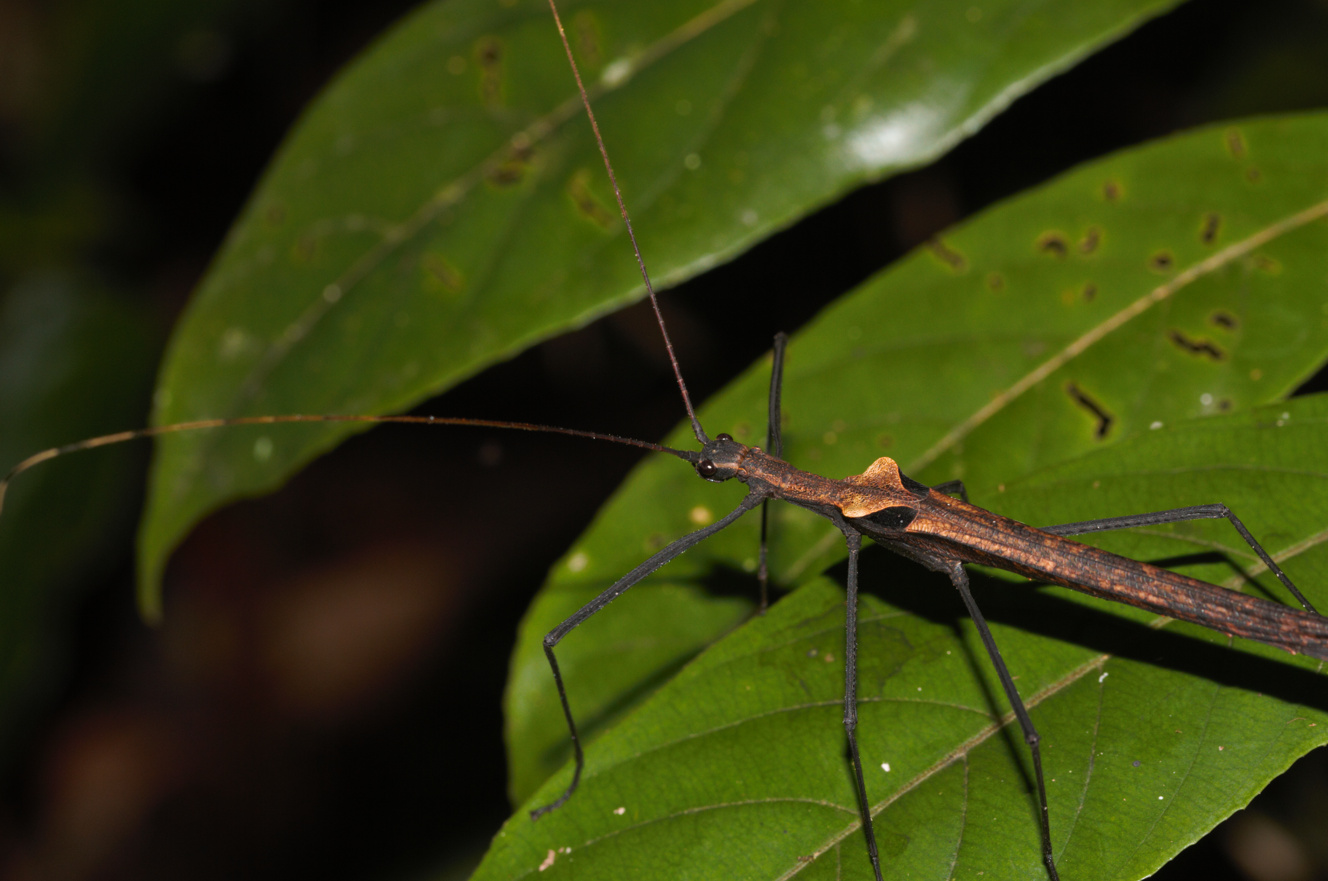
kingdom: Animalia
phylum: Arthropoda
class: Insecta
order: Phasmida
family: Pseudophasmatidae
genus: Pseudophasma
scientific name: Pseudophasma phthisicum
